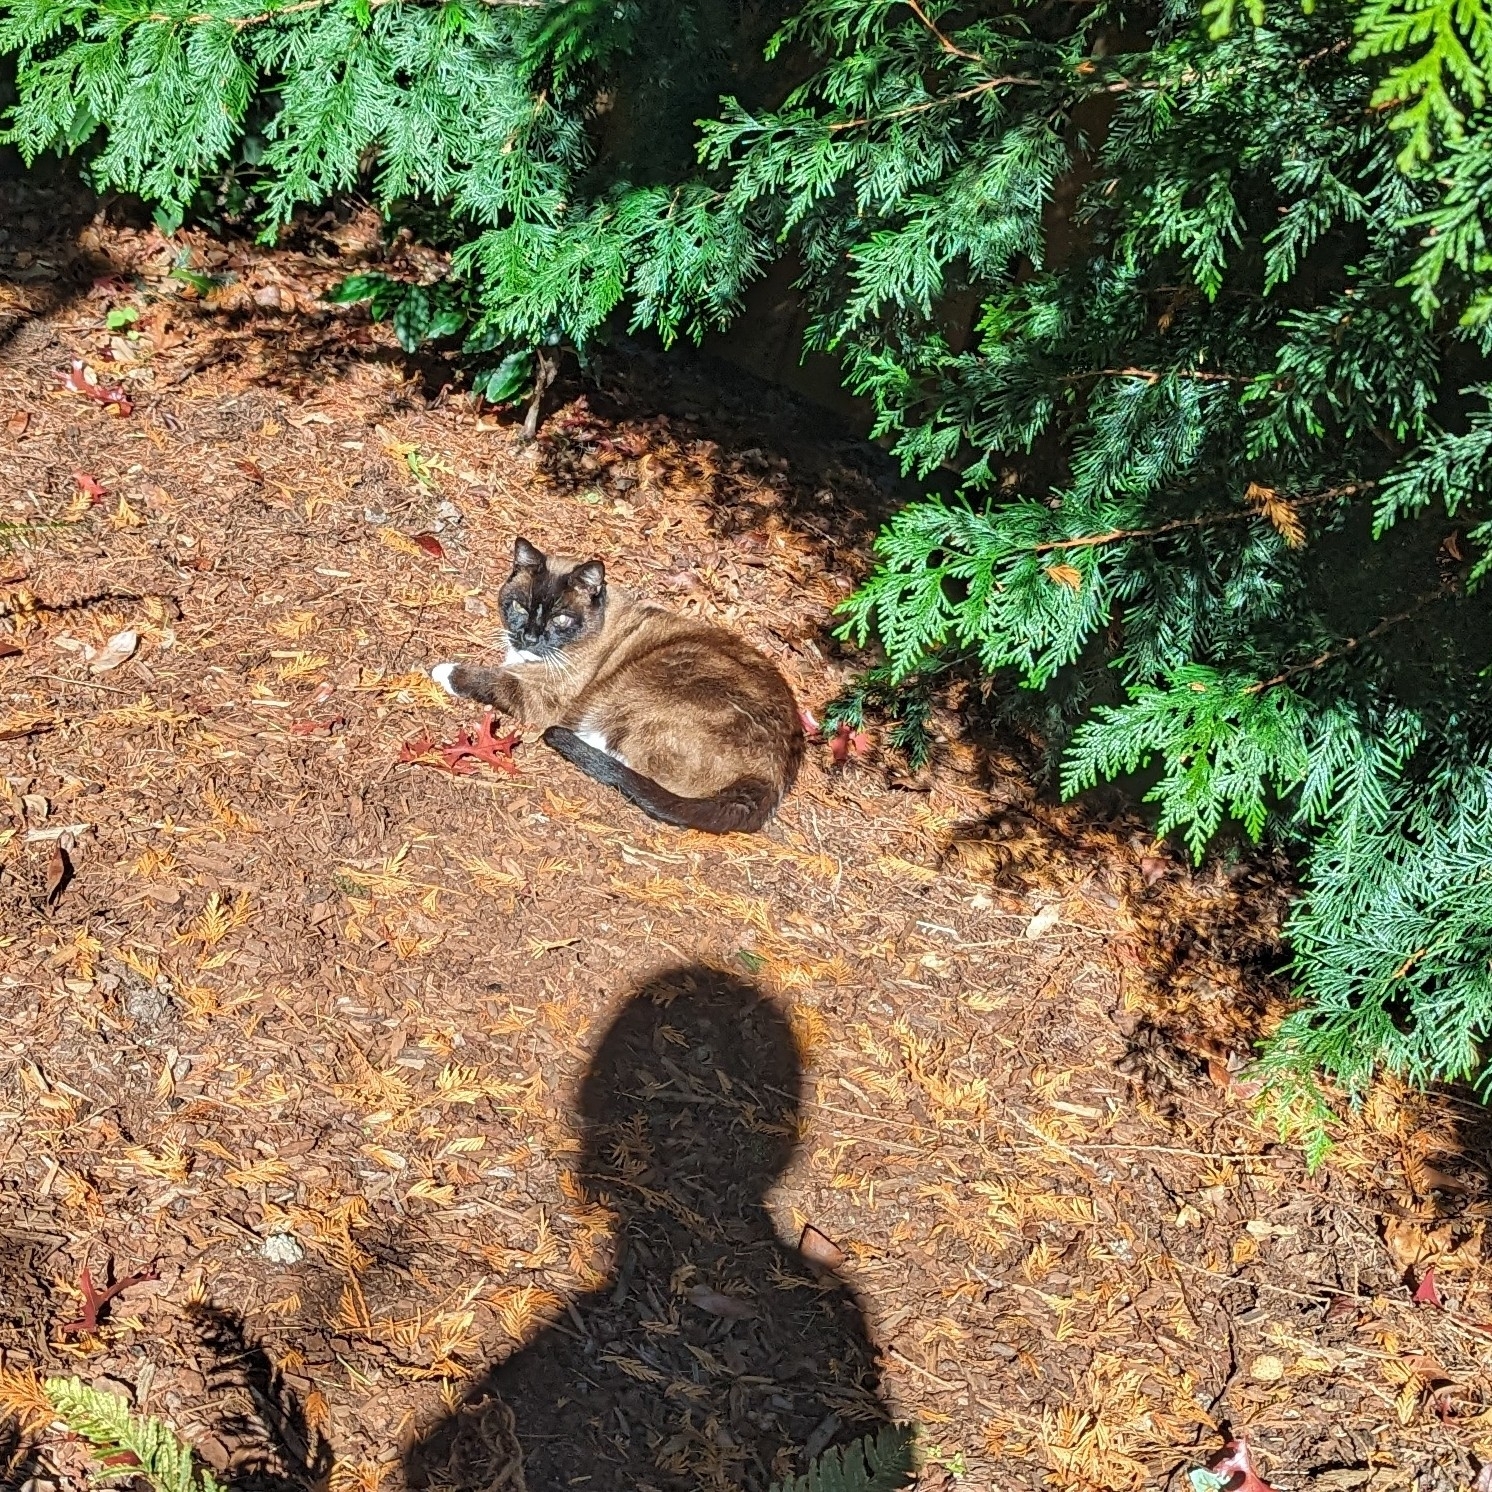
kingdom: Animalia
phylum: Chordata
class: Mammalia
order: Carnivora
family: Felidae
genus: Felis
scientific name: Felis catus
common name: Domestic cat
